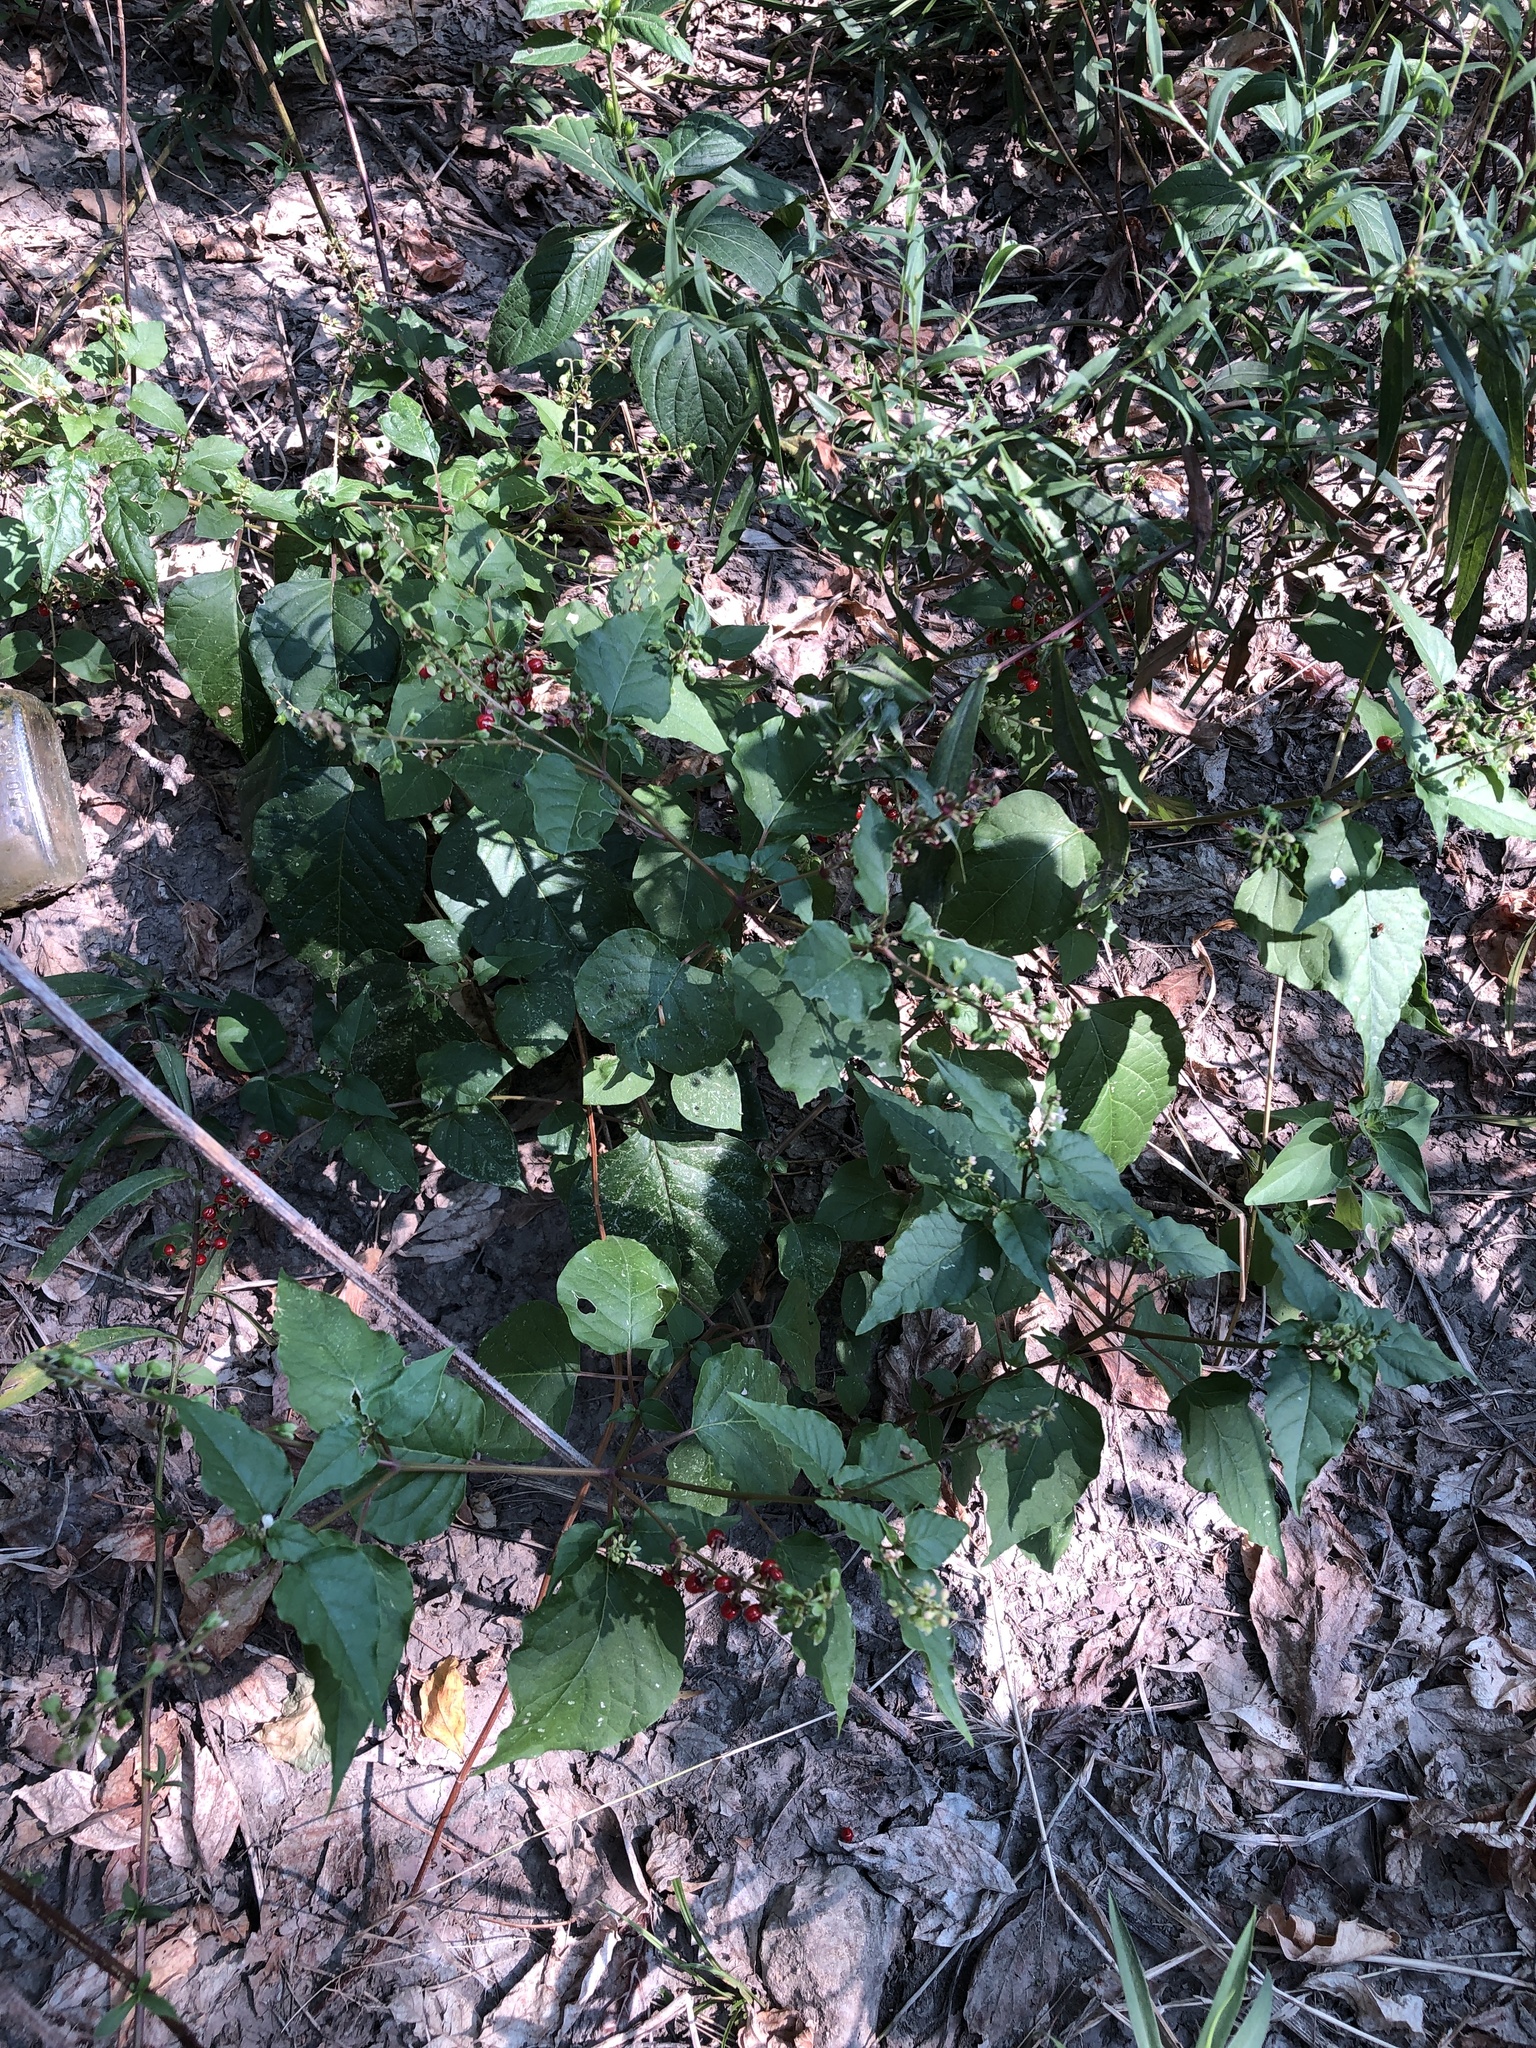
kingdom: Plantae
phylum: Tracheophyta
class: Magnoliopsida
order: Caryophyllales
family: Phytolaccaceae
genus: Rivina
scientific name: Rivina humilis
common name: Rougeplant
